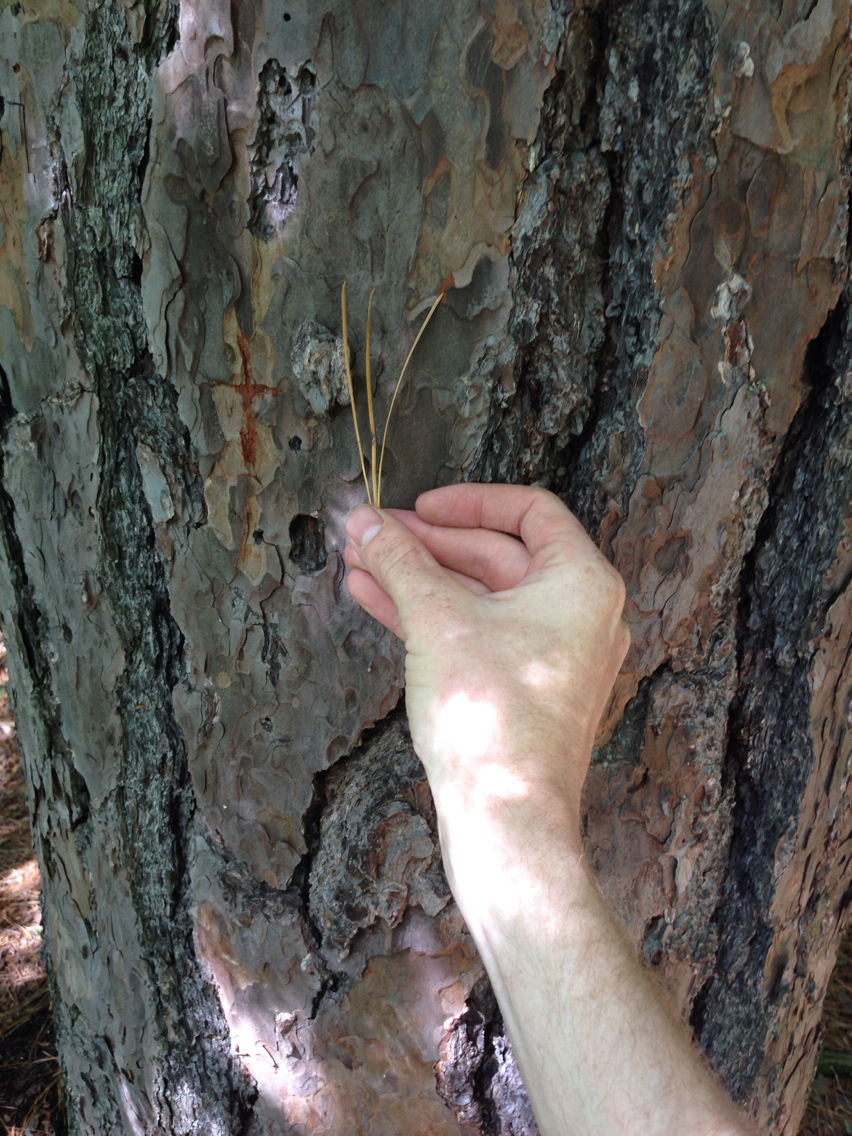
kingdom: Plantae
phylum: Tracheophyta
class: Pinopsida
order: Pinales
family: Pinaceae
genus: Pinus
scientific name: Pinus rigida
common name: Pitch pine
